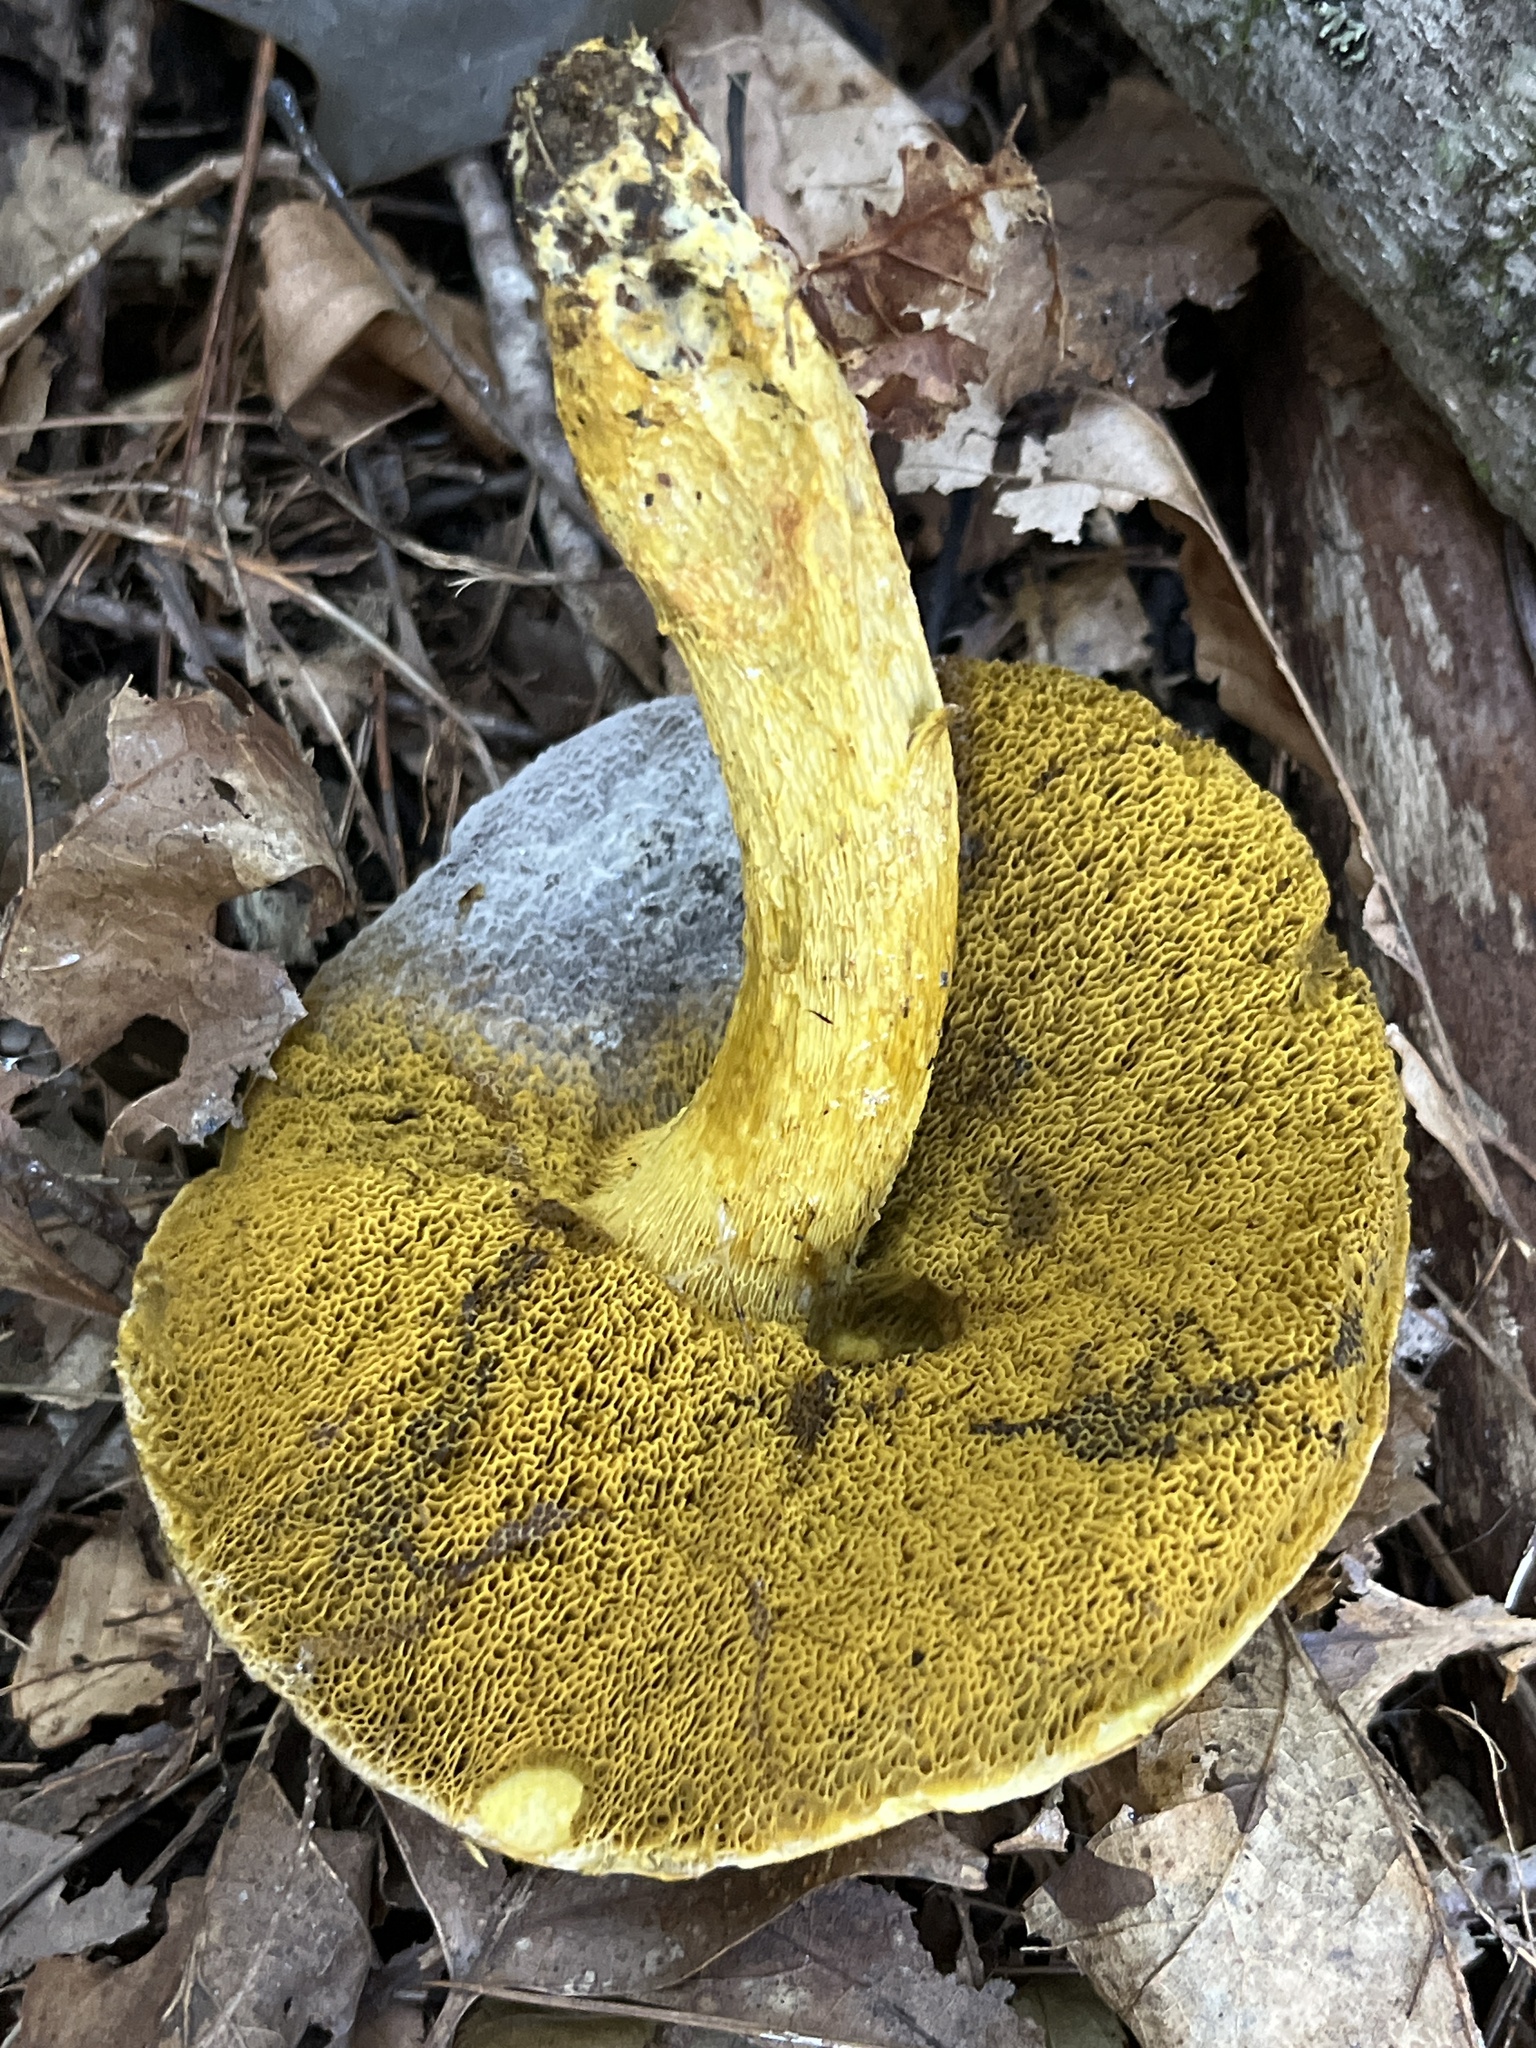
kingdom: Fungi
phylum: Basidiomycota
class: Agaricomycetes
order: Boletales
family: Boletaceae
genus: Retiboletus
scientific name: Retiboletus ornatipes
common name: Ornate-stalked bolete
